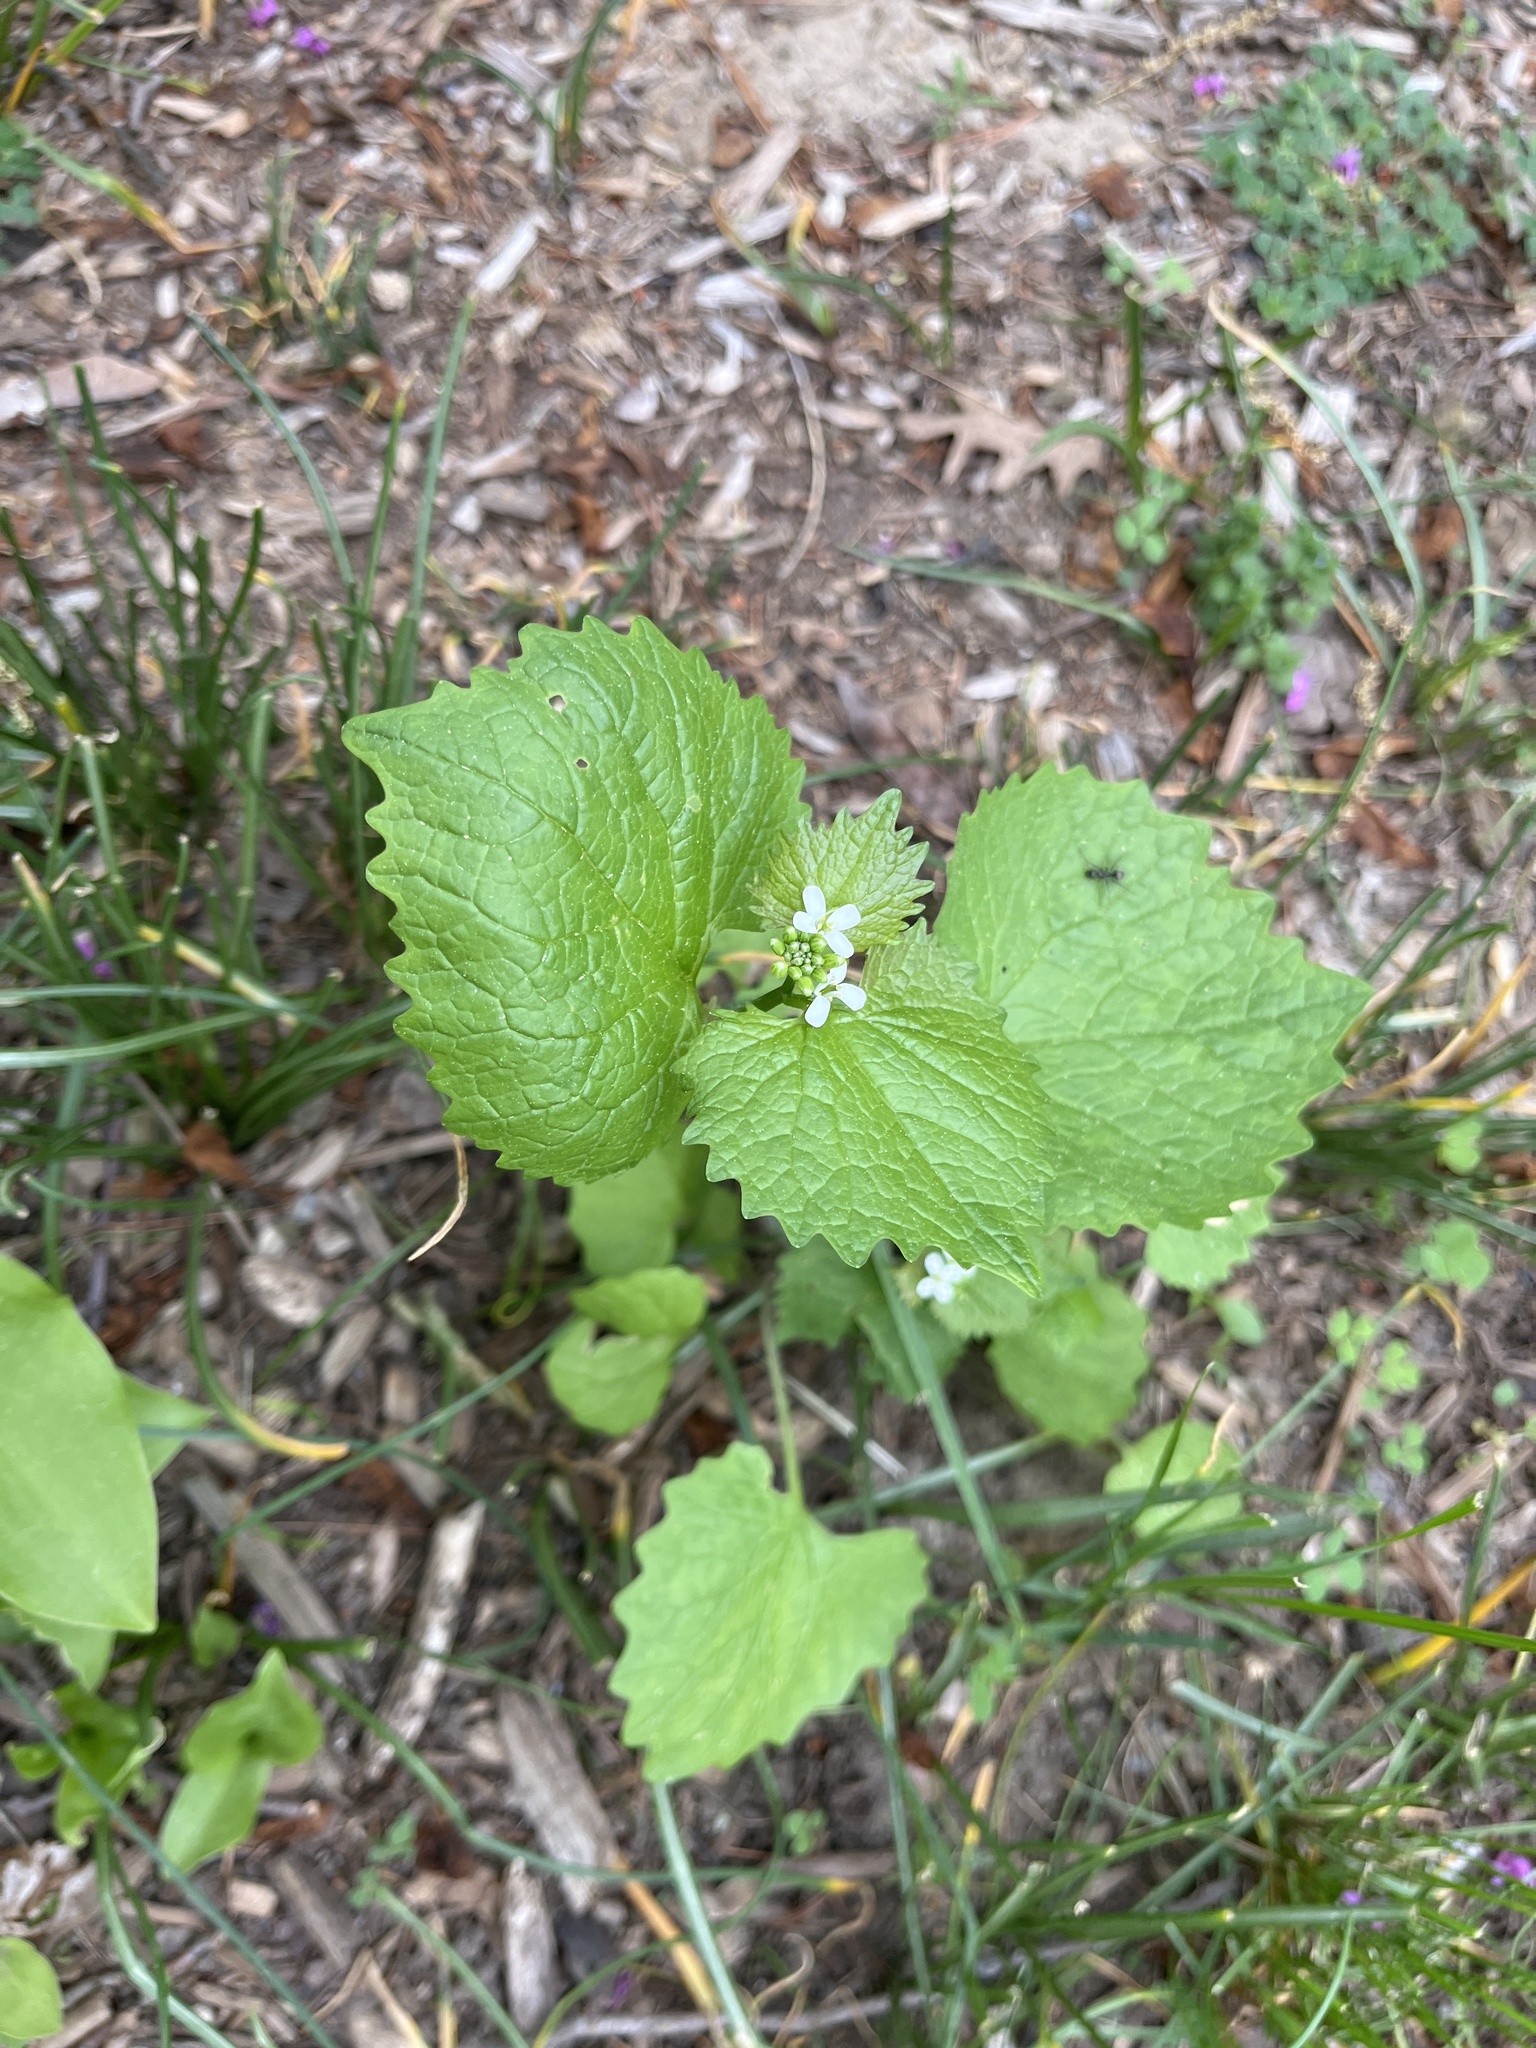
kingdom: Plantae
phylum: Tracheophyta
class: Magnoliopsida
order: Brassicales
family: Brassicaceae
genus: Alliaria
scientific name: Alliaria petiolata
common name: Garlic mustard
